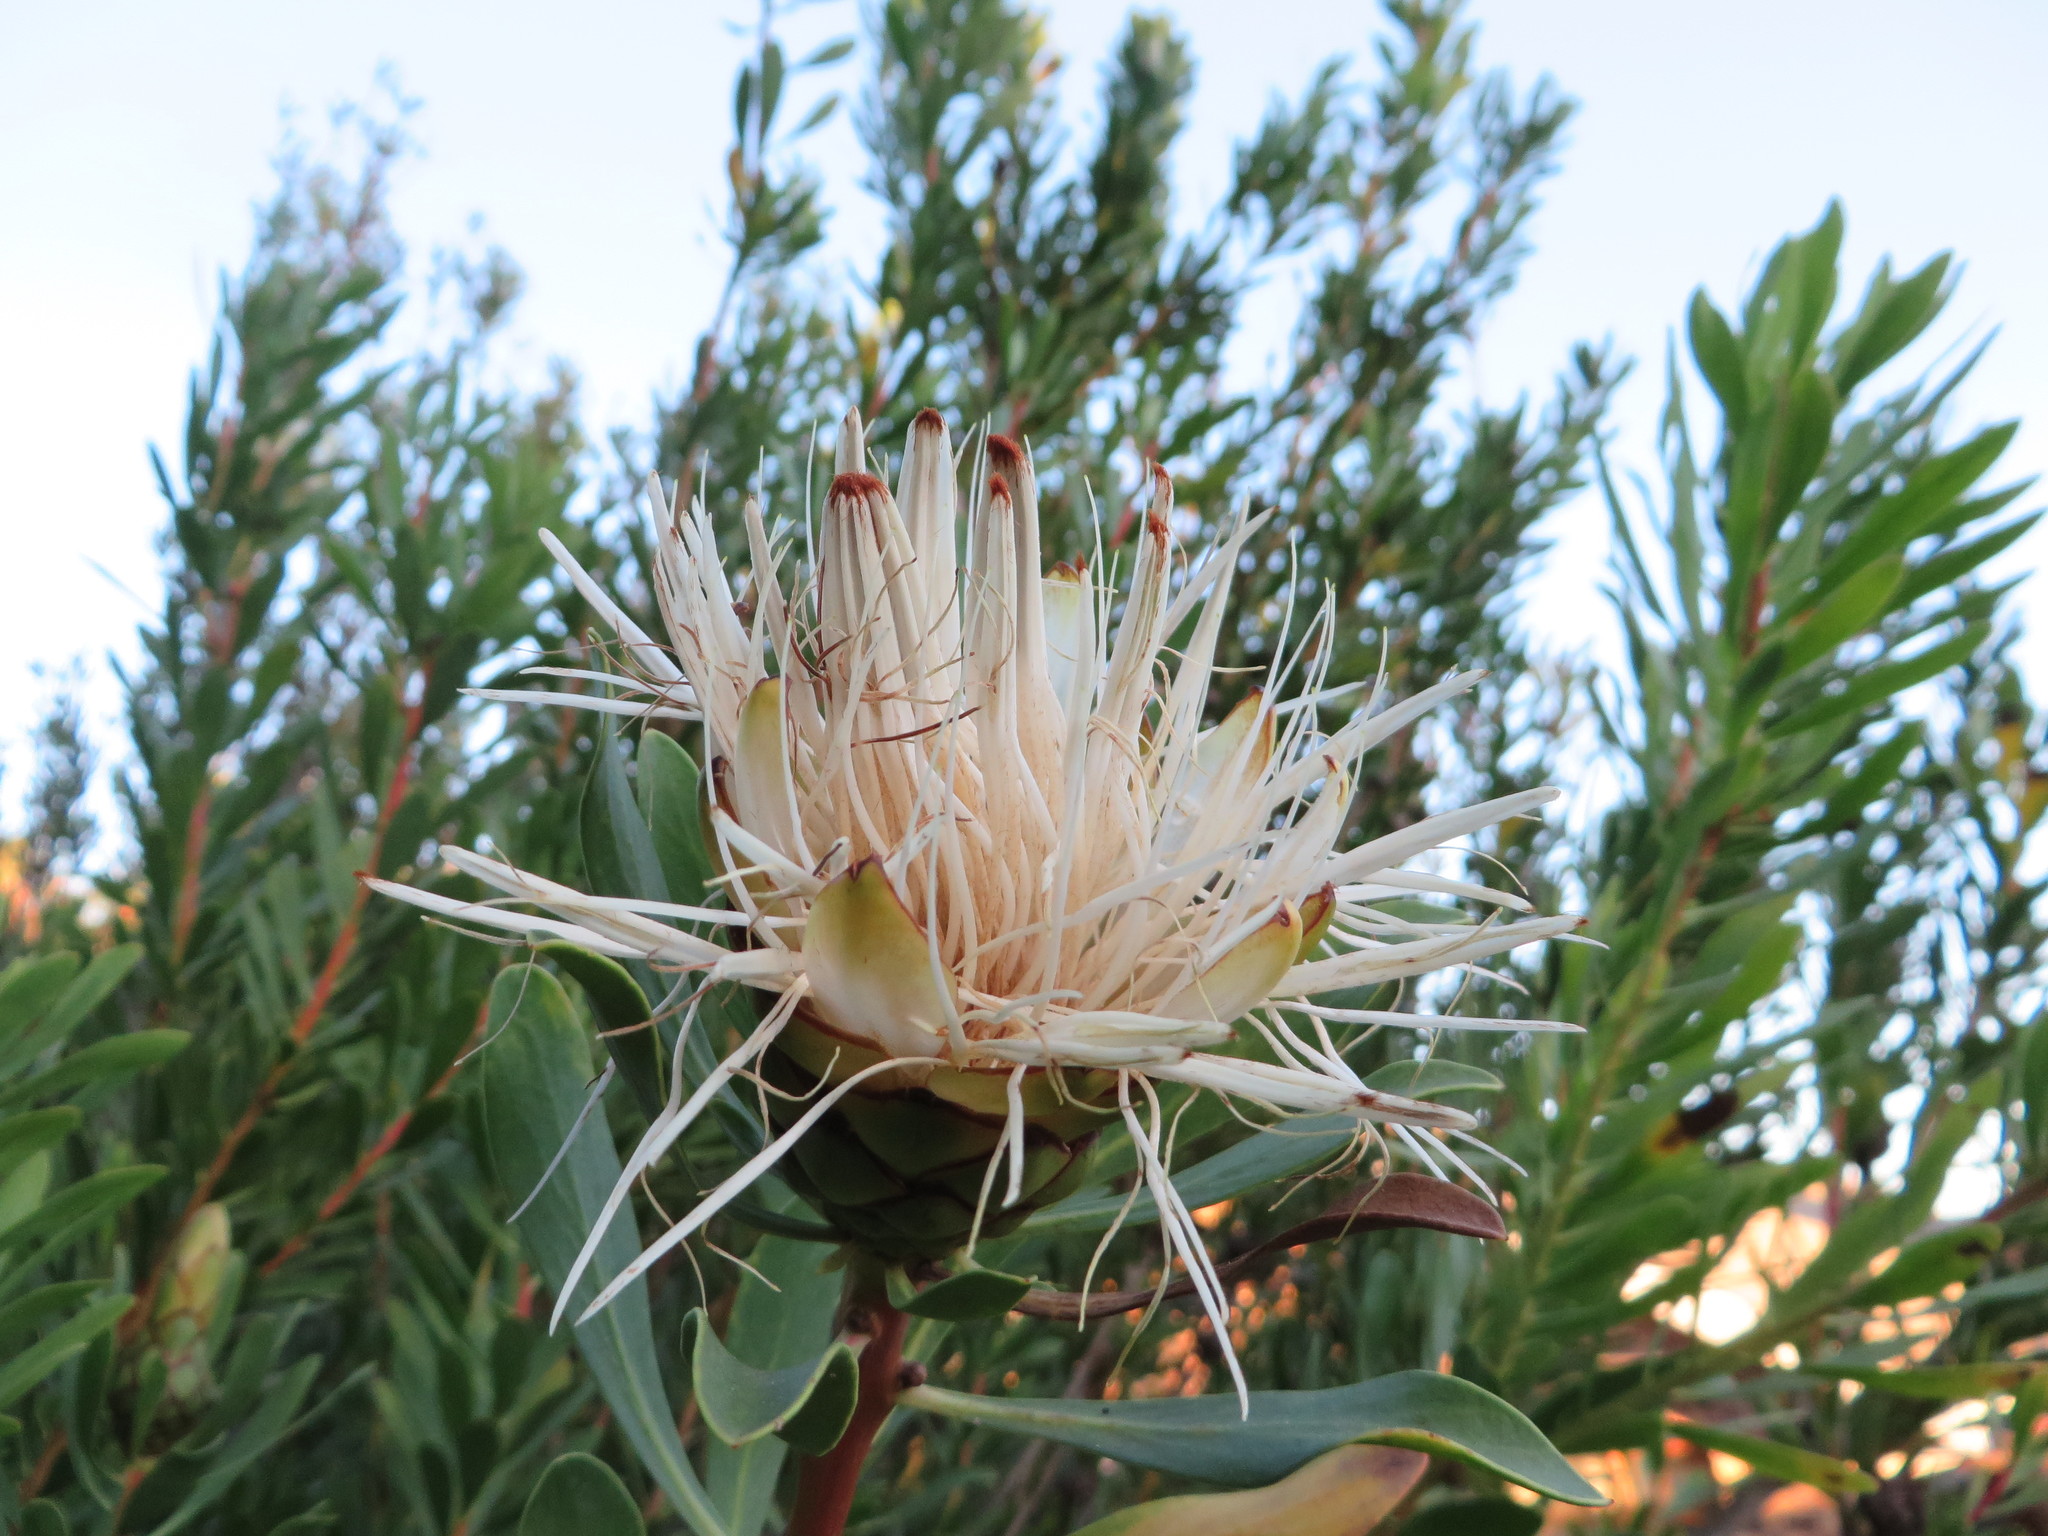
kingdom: Plantae
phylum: Tracheophyta
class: Magnoliopsida
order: Proteales
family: Proteaceae
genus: Protea
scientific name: Protea lanceolata
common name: Lance-leaved protea
